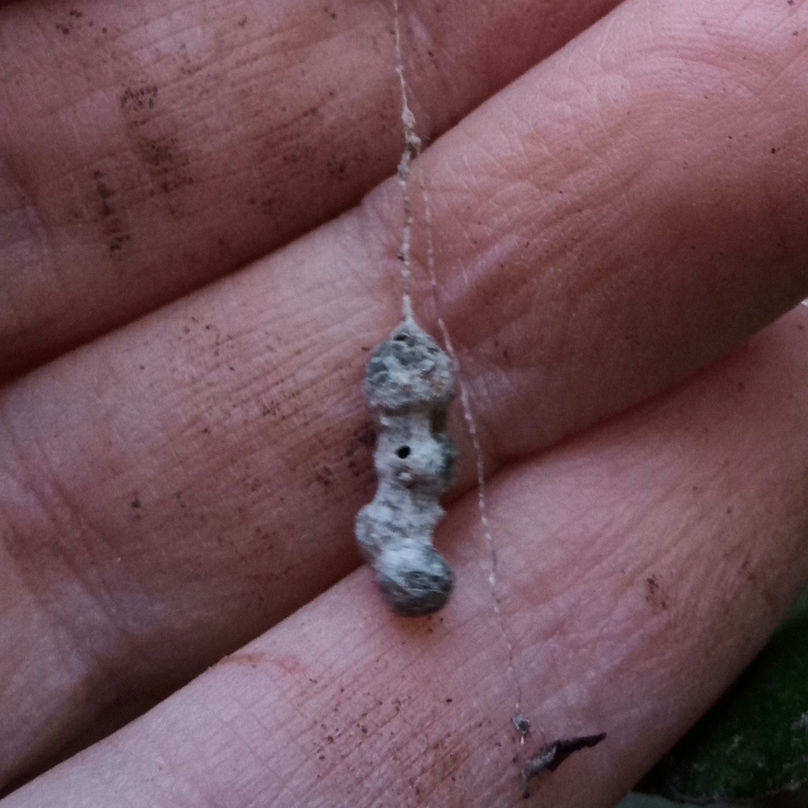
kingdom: Animalia
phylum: Arthropoda
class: Arachnida
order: Araneae
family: Araneidae
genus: Mecynogea
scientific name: Mecynogea lemniscata
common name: Orb weavers
